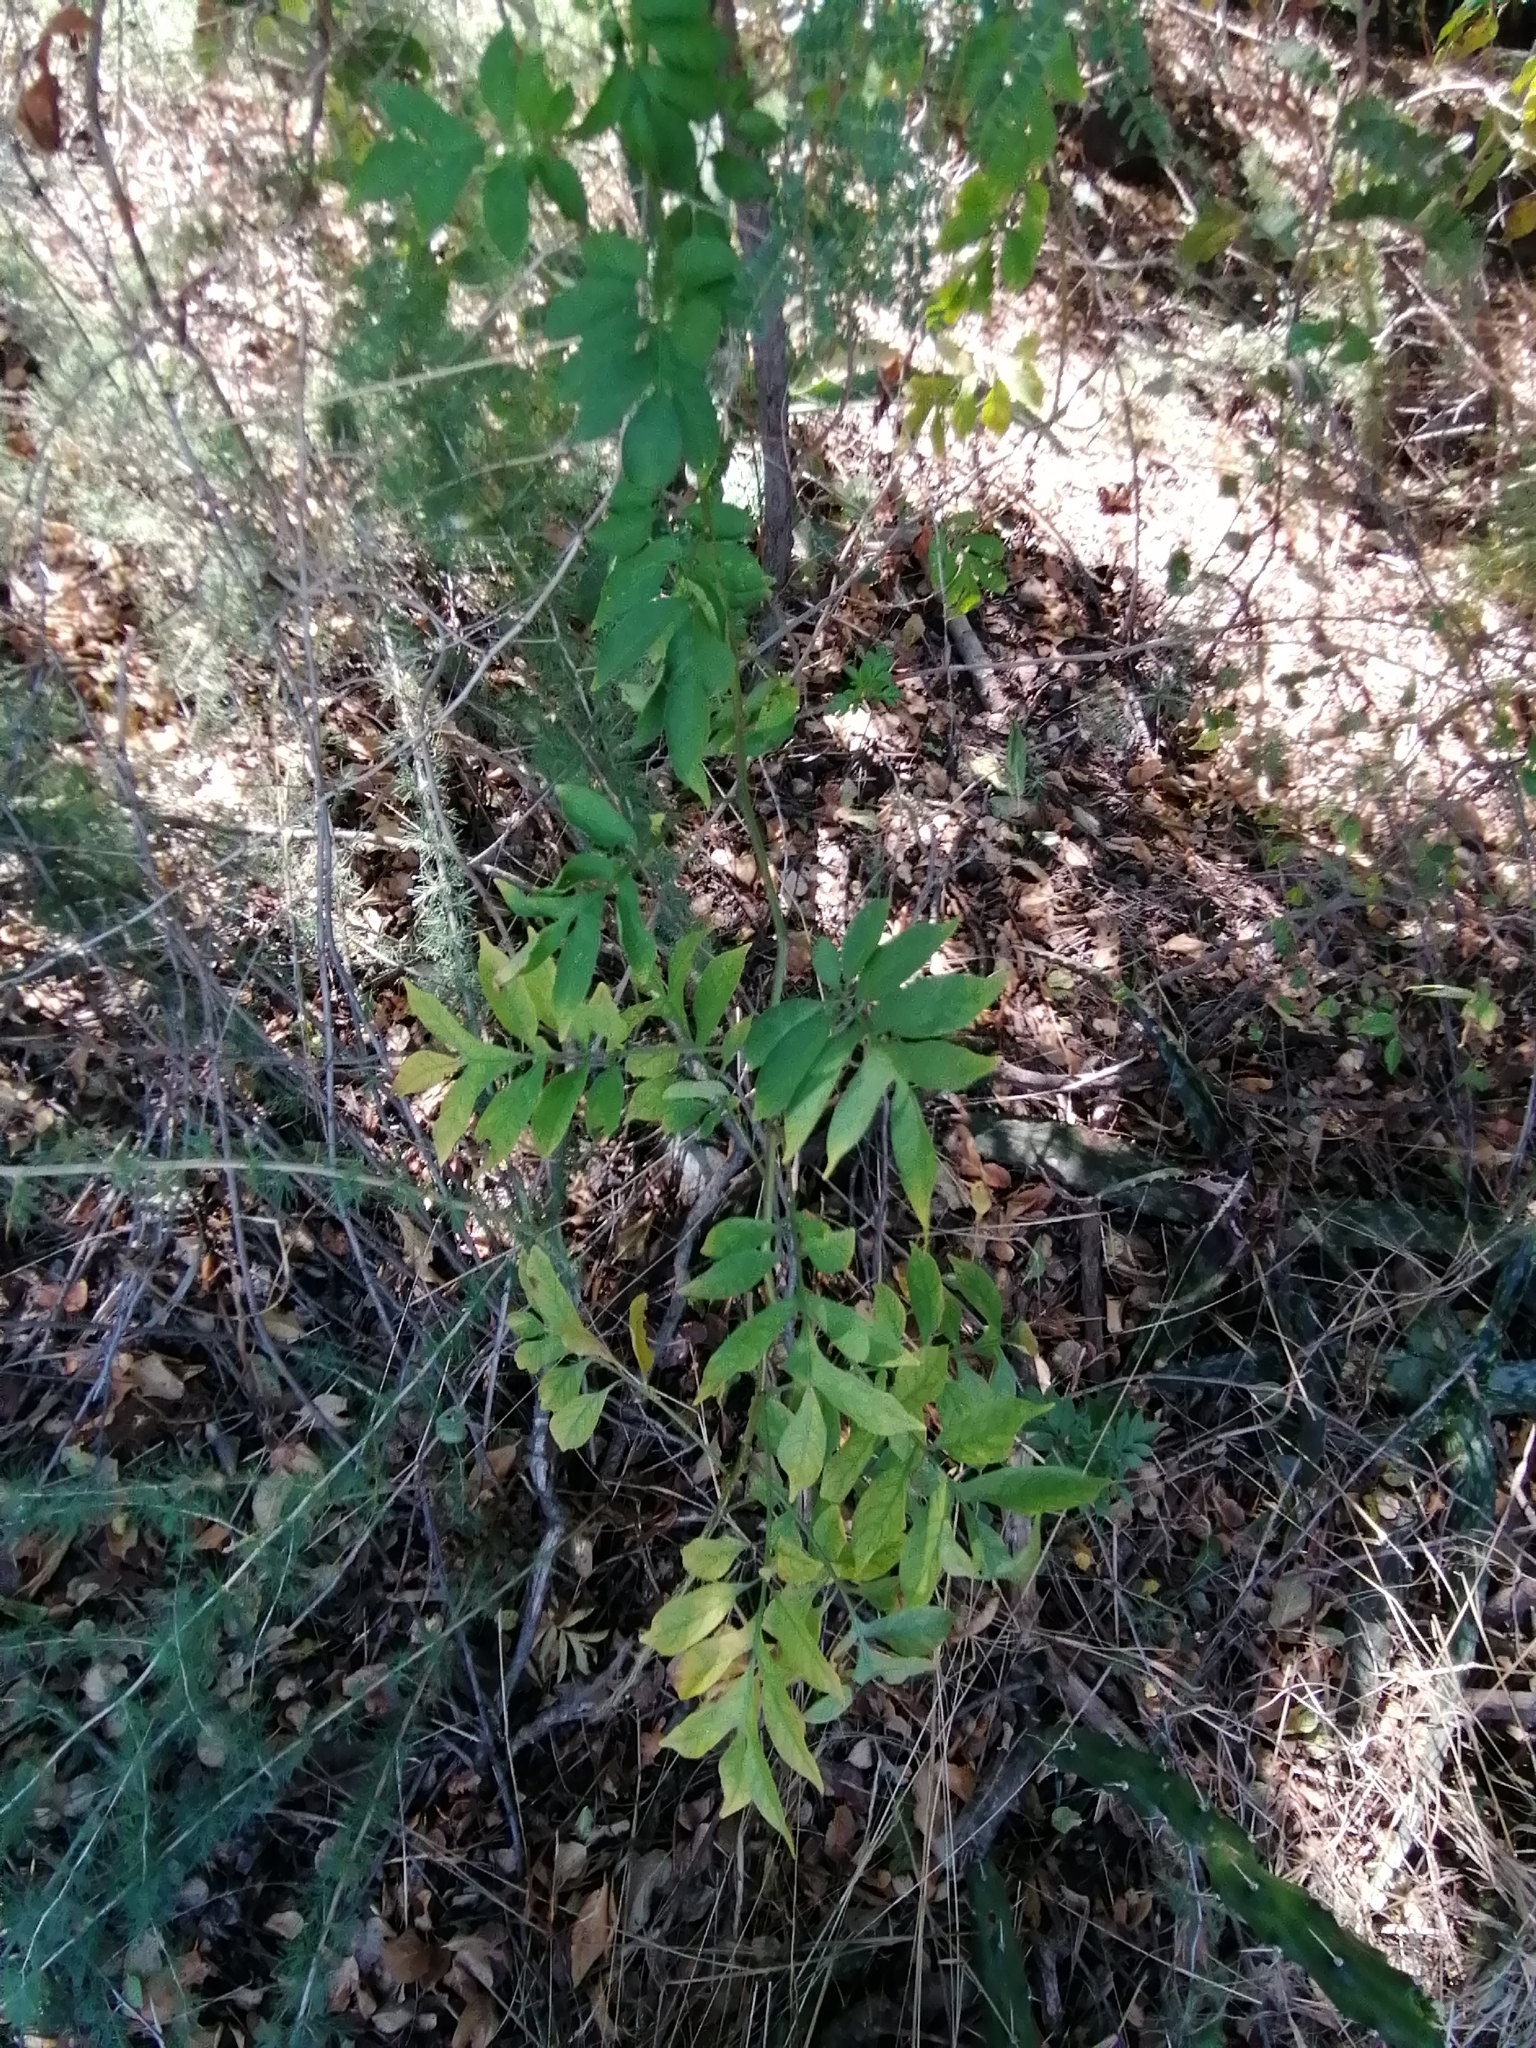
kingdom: Plantae
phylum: Tracheophyta
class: Magnoliopsida
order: Solanales
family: Solanaceae
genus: Solanum
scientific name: Solanum seaforthianum
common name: Brazilian nightshade
